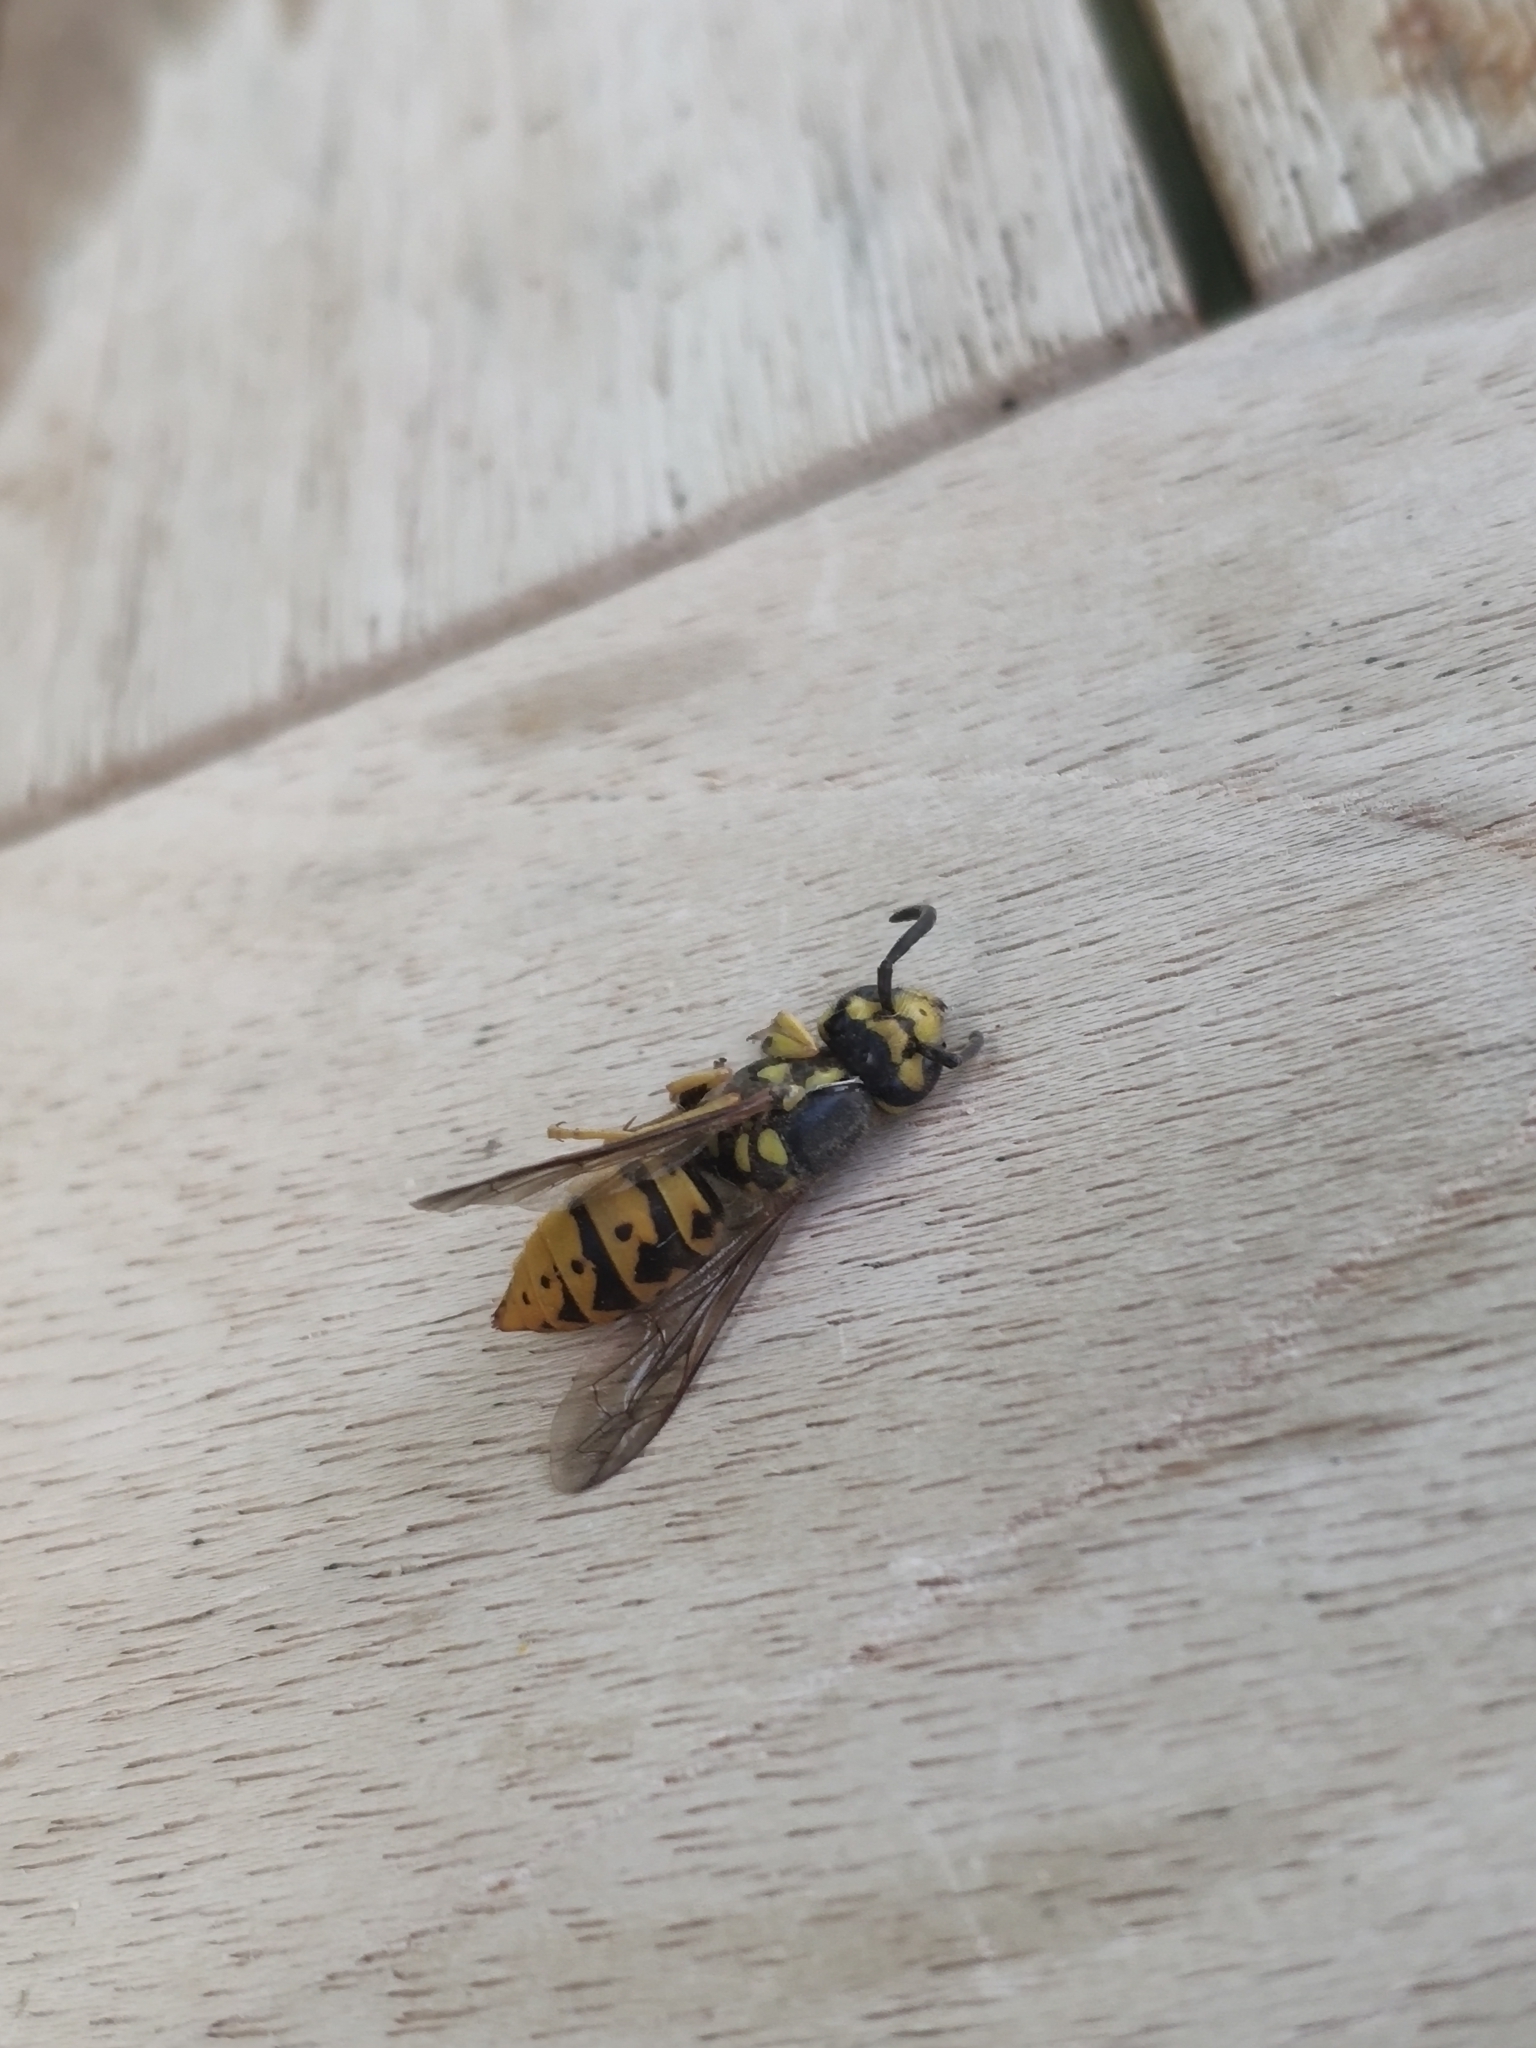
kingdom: Animalia
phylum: Arthropoda
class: Insecta
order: Hymenoptera
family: Vespidae
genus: Vespula
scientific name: Vespula germanica
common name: German wasp
